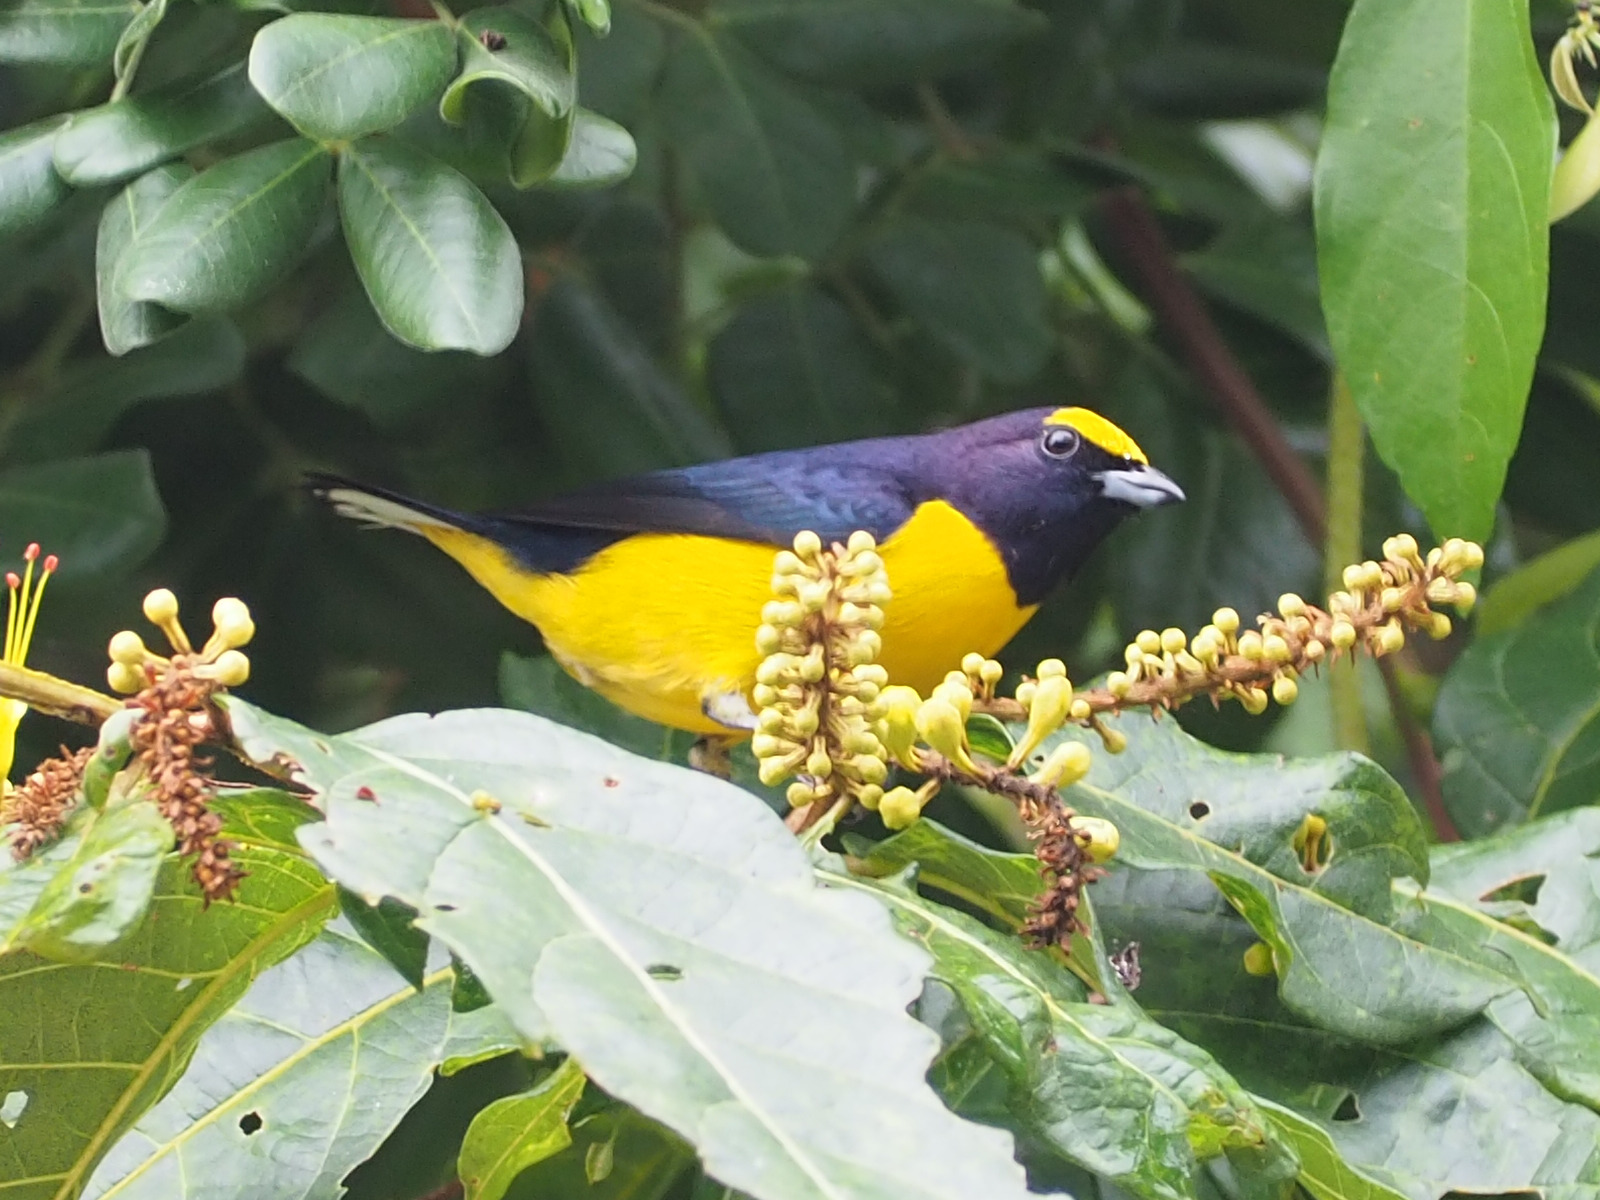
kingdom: Animalia
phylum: Chordata
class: Aves
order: Passeriformes
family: Fringillidae
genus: Euphonia
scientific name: Euphonia affinis
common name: Scrub euphonia
